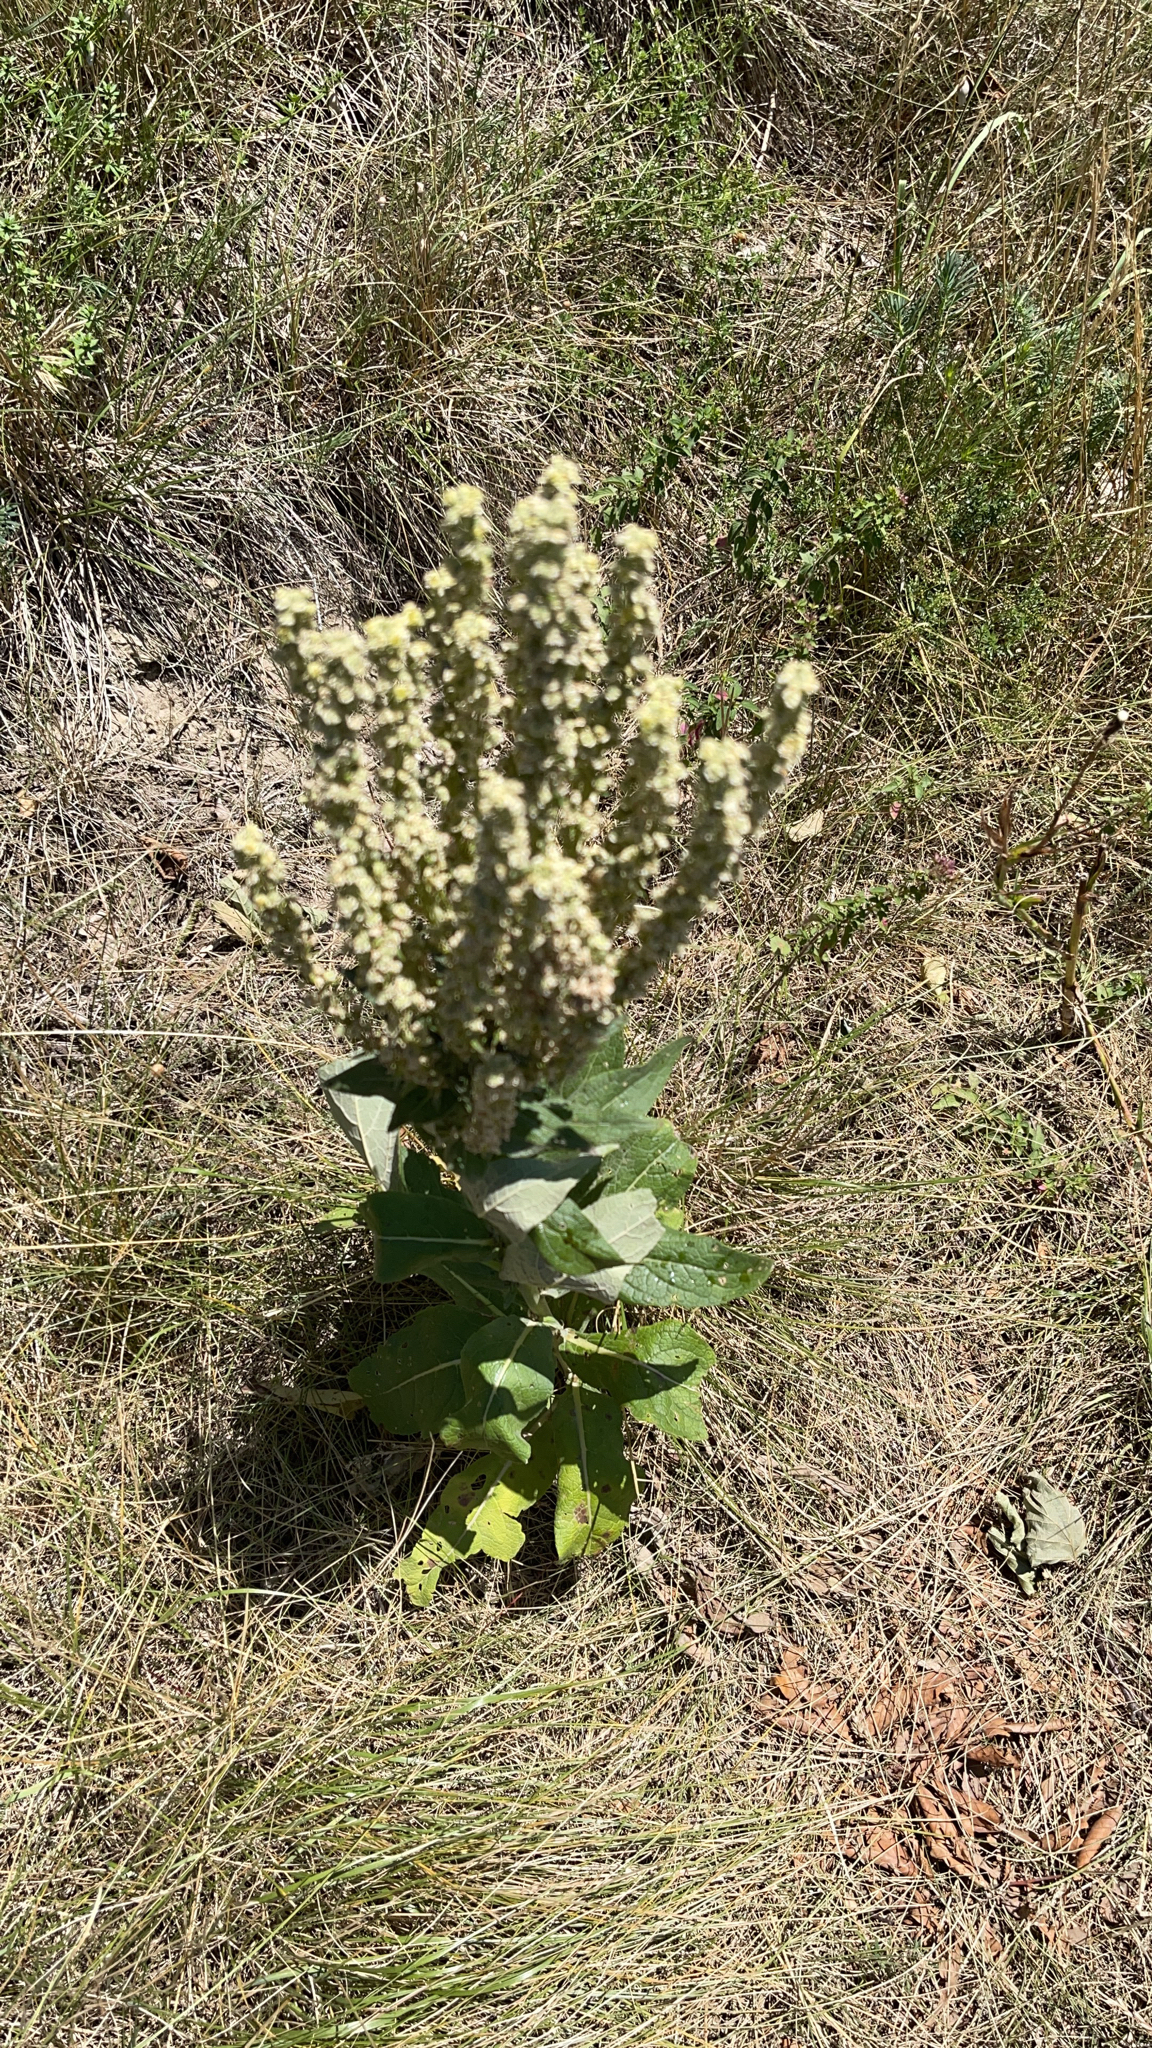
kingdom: Plantae
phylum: Tracheophyta
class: Magnoliopsida
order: Lamiales
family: Scrophulariaceae
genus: Verbascum
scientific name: Verbascum lychnitis
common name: White mullein
